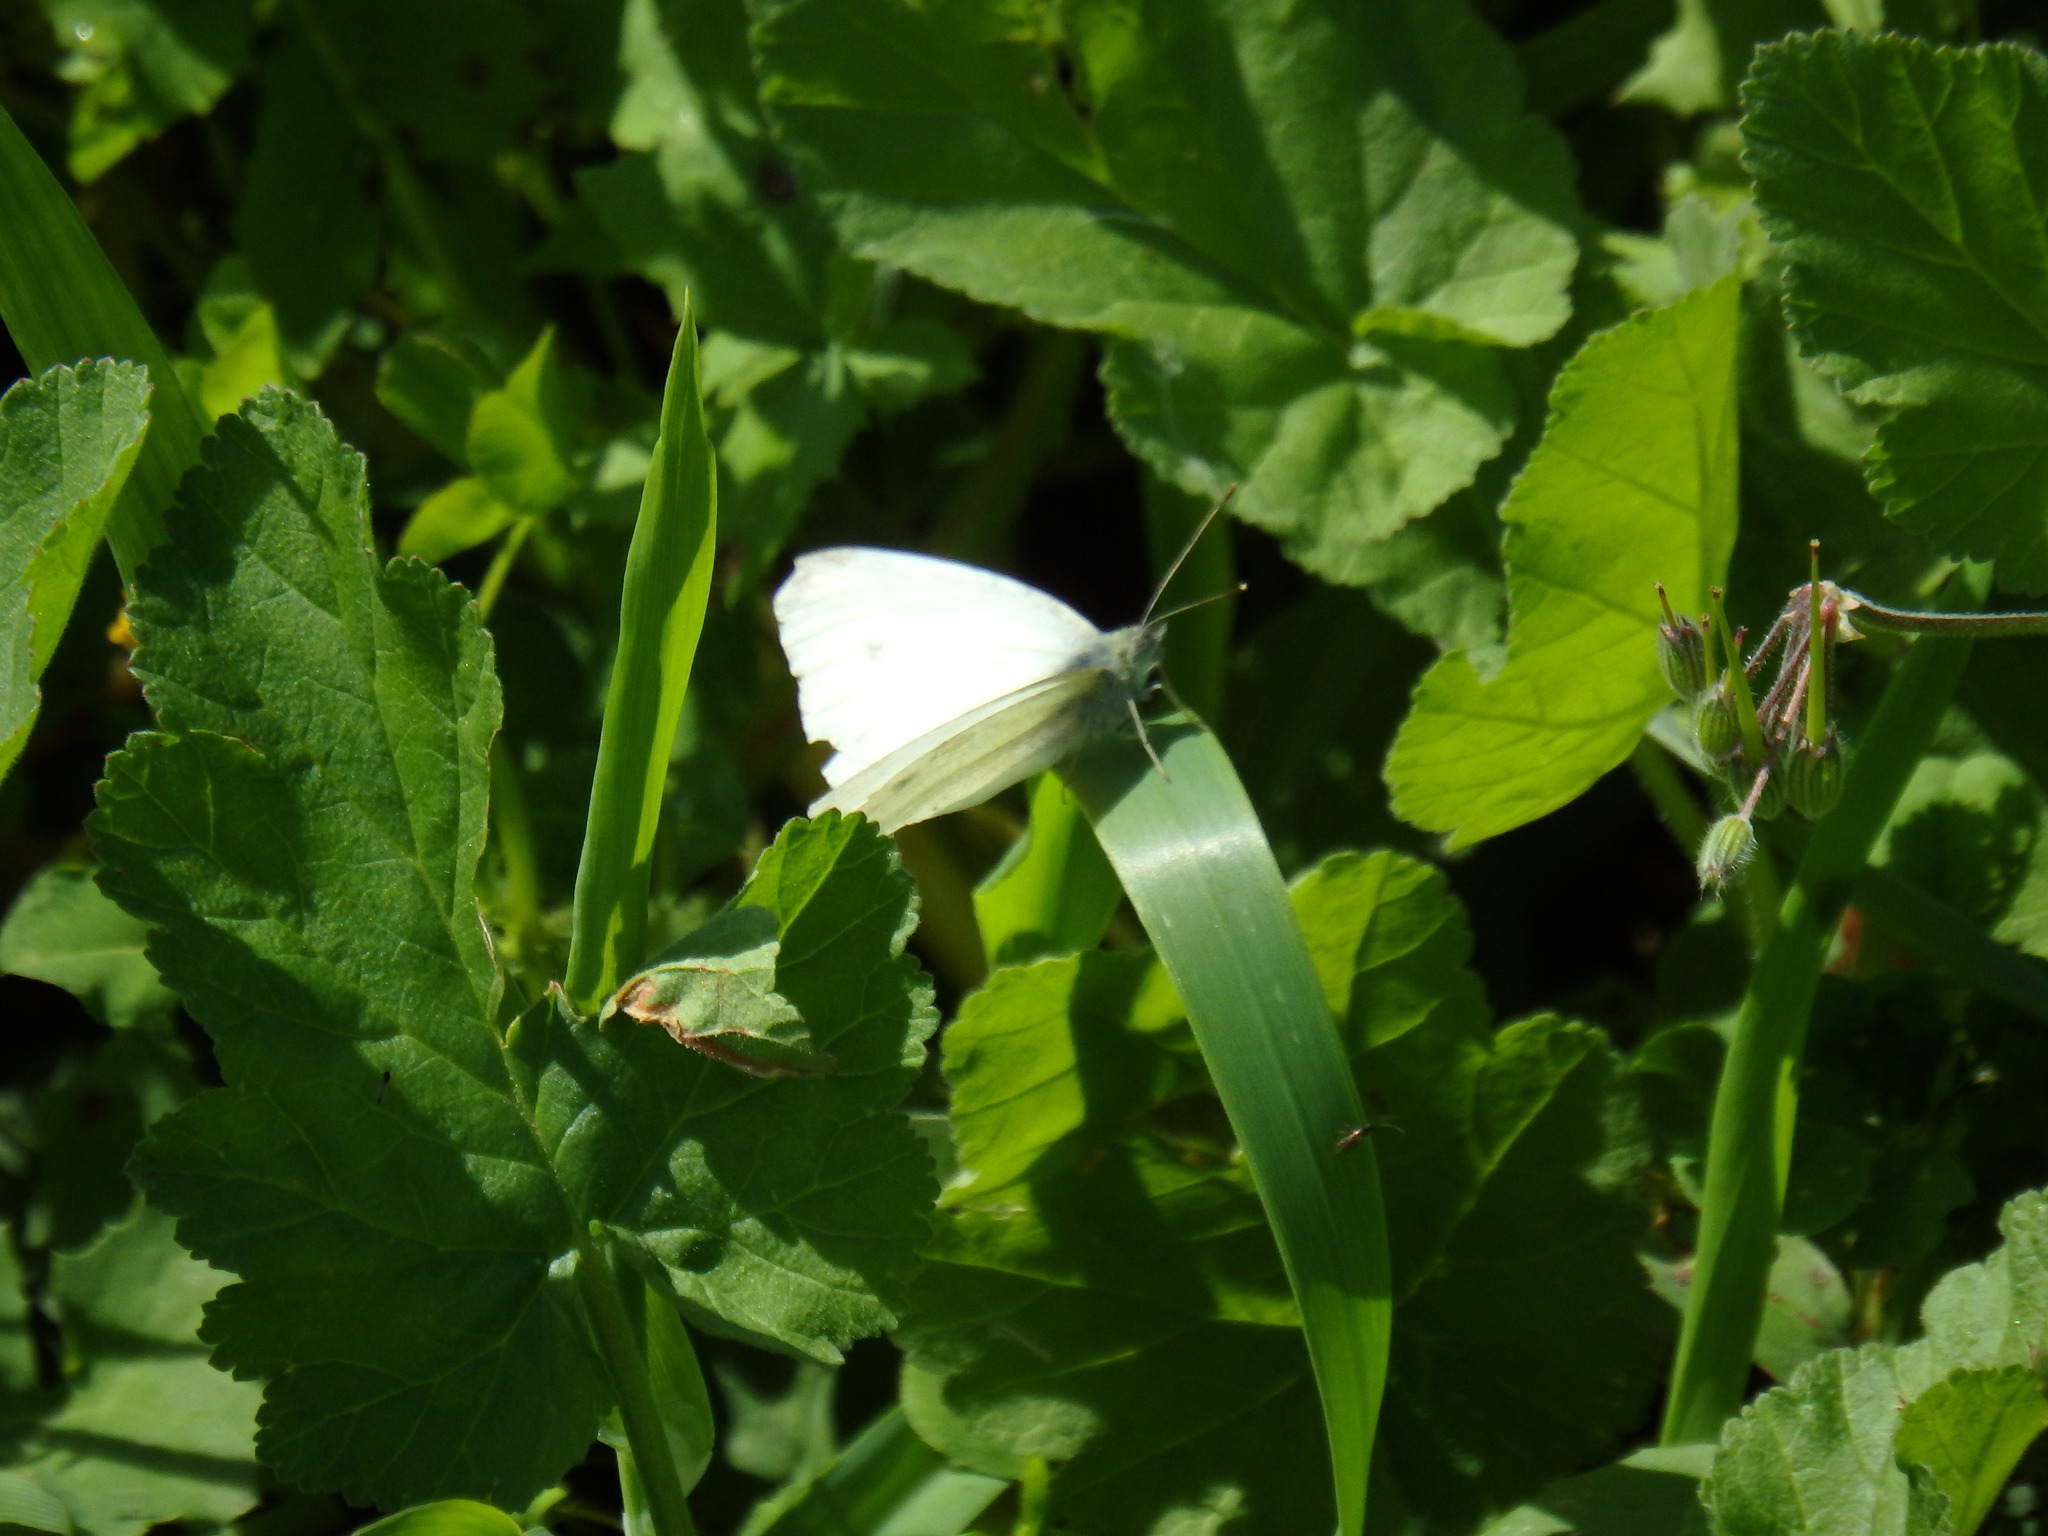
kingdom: Animalia
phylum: Arthropoda
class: Insecta
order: Lepidoptera
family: Pieridae
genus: Pieris
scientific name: Pieris rapae
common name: Small white
